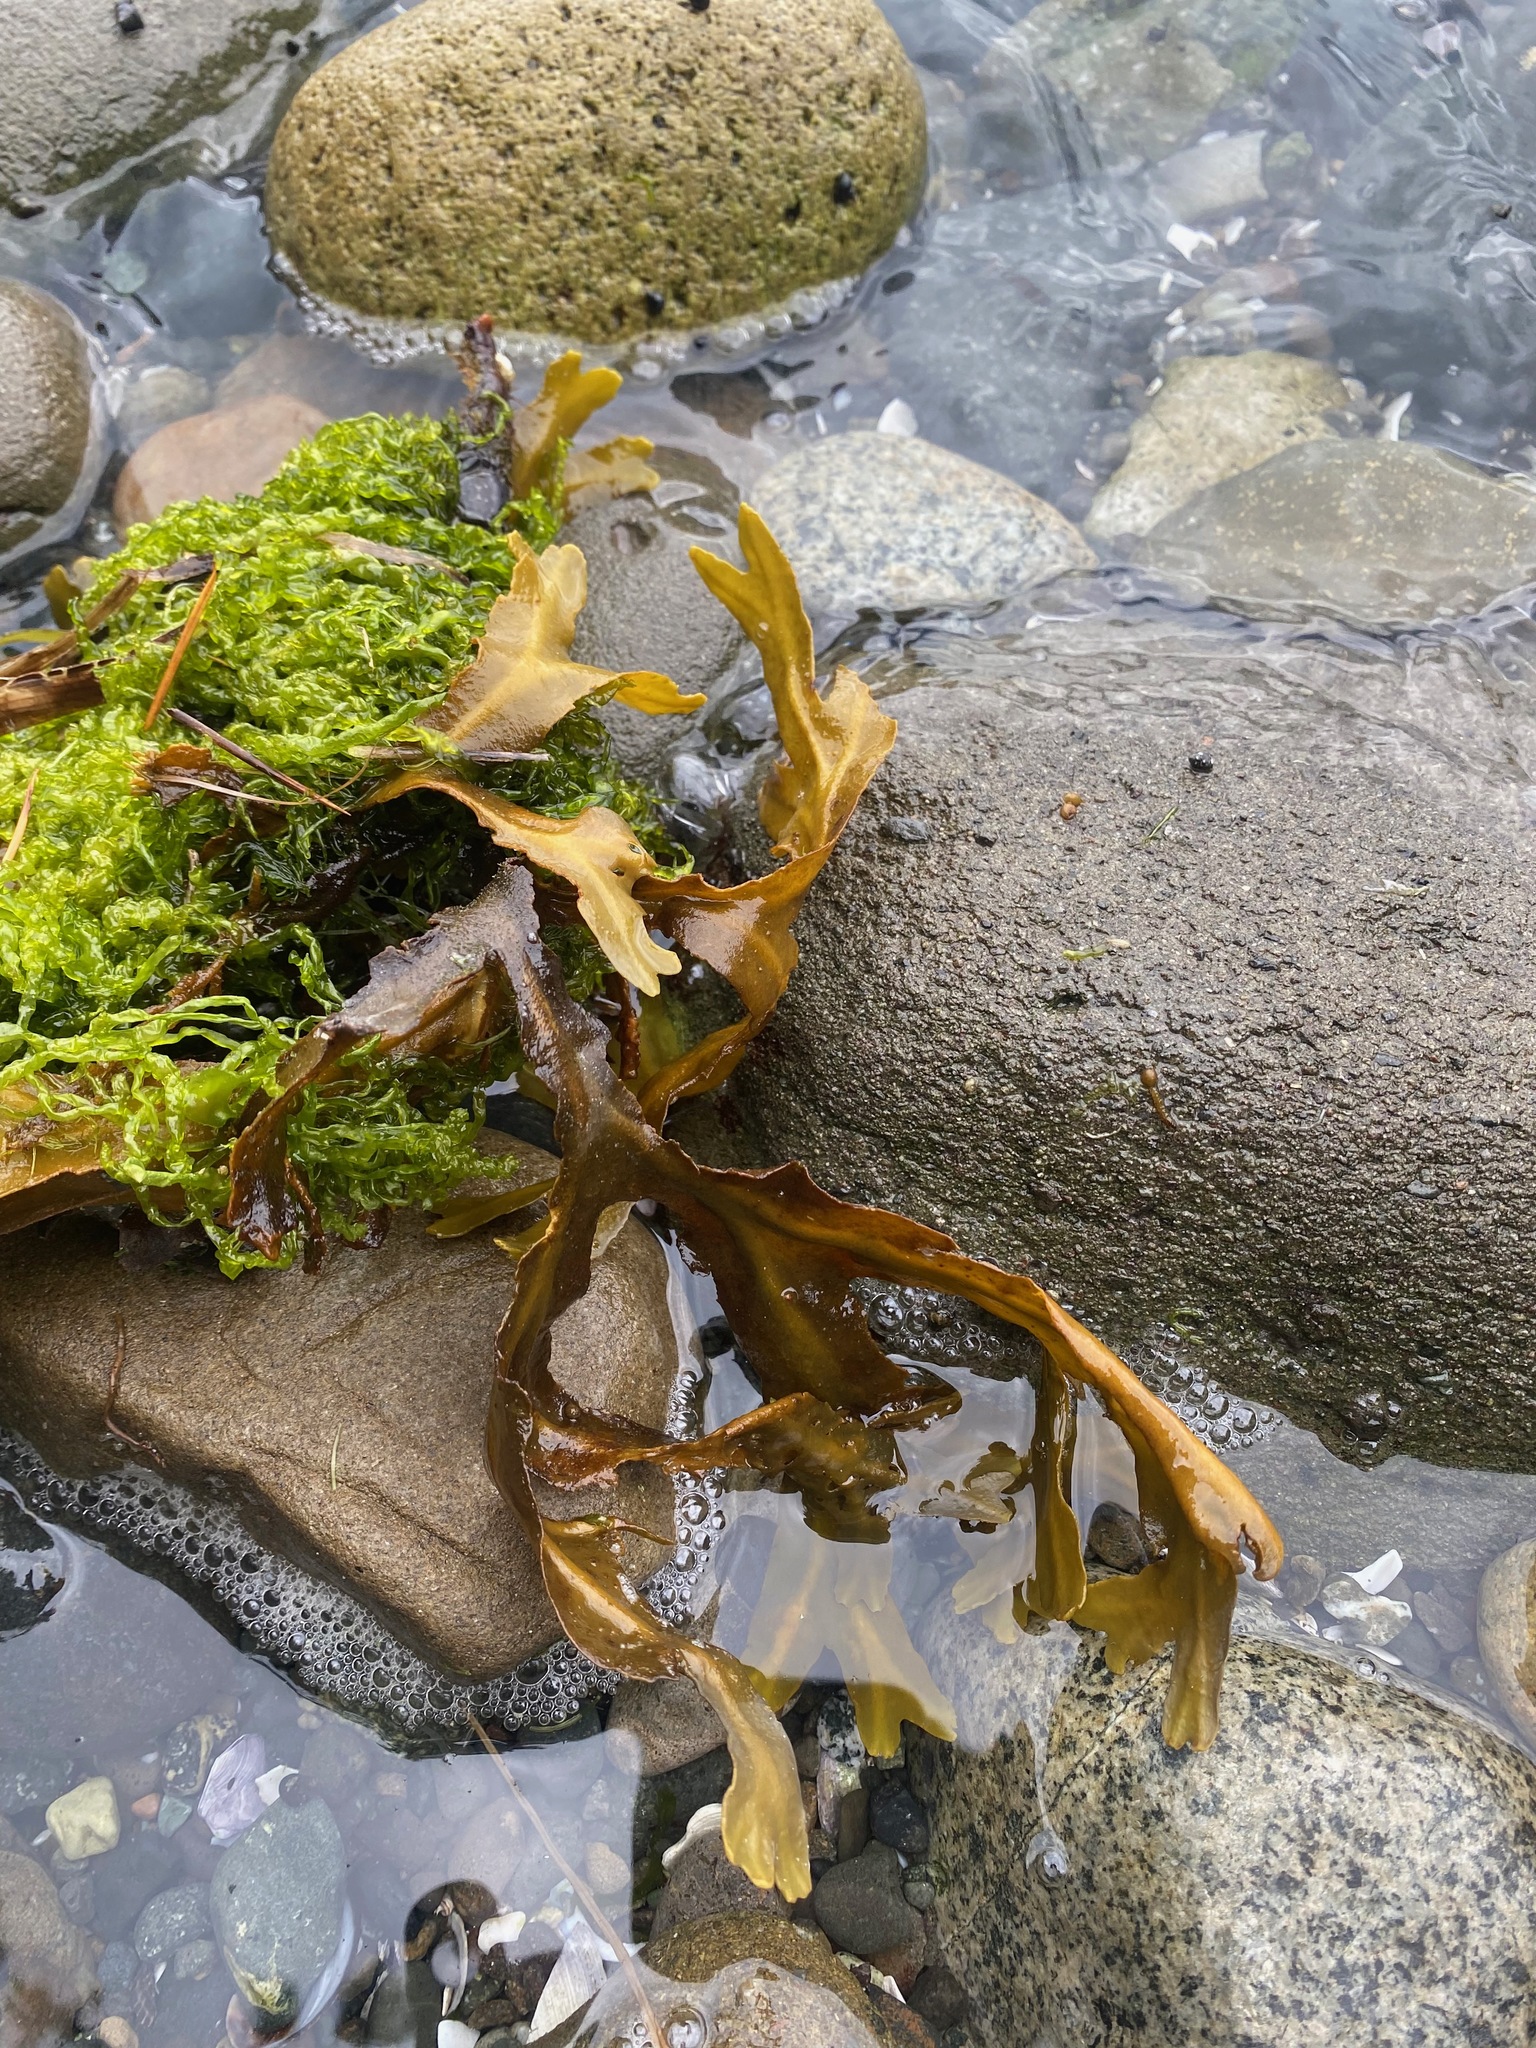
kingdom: Chromista
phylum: Ochrophyta
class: Phaeophyceae
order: Fucales
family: Fucaceae
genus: Fucus
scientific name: Fucus distichus
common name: Rockweed
